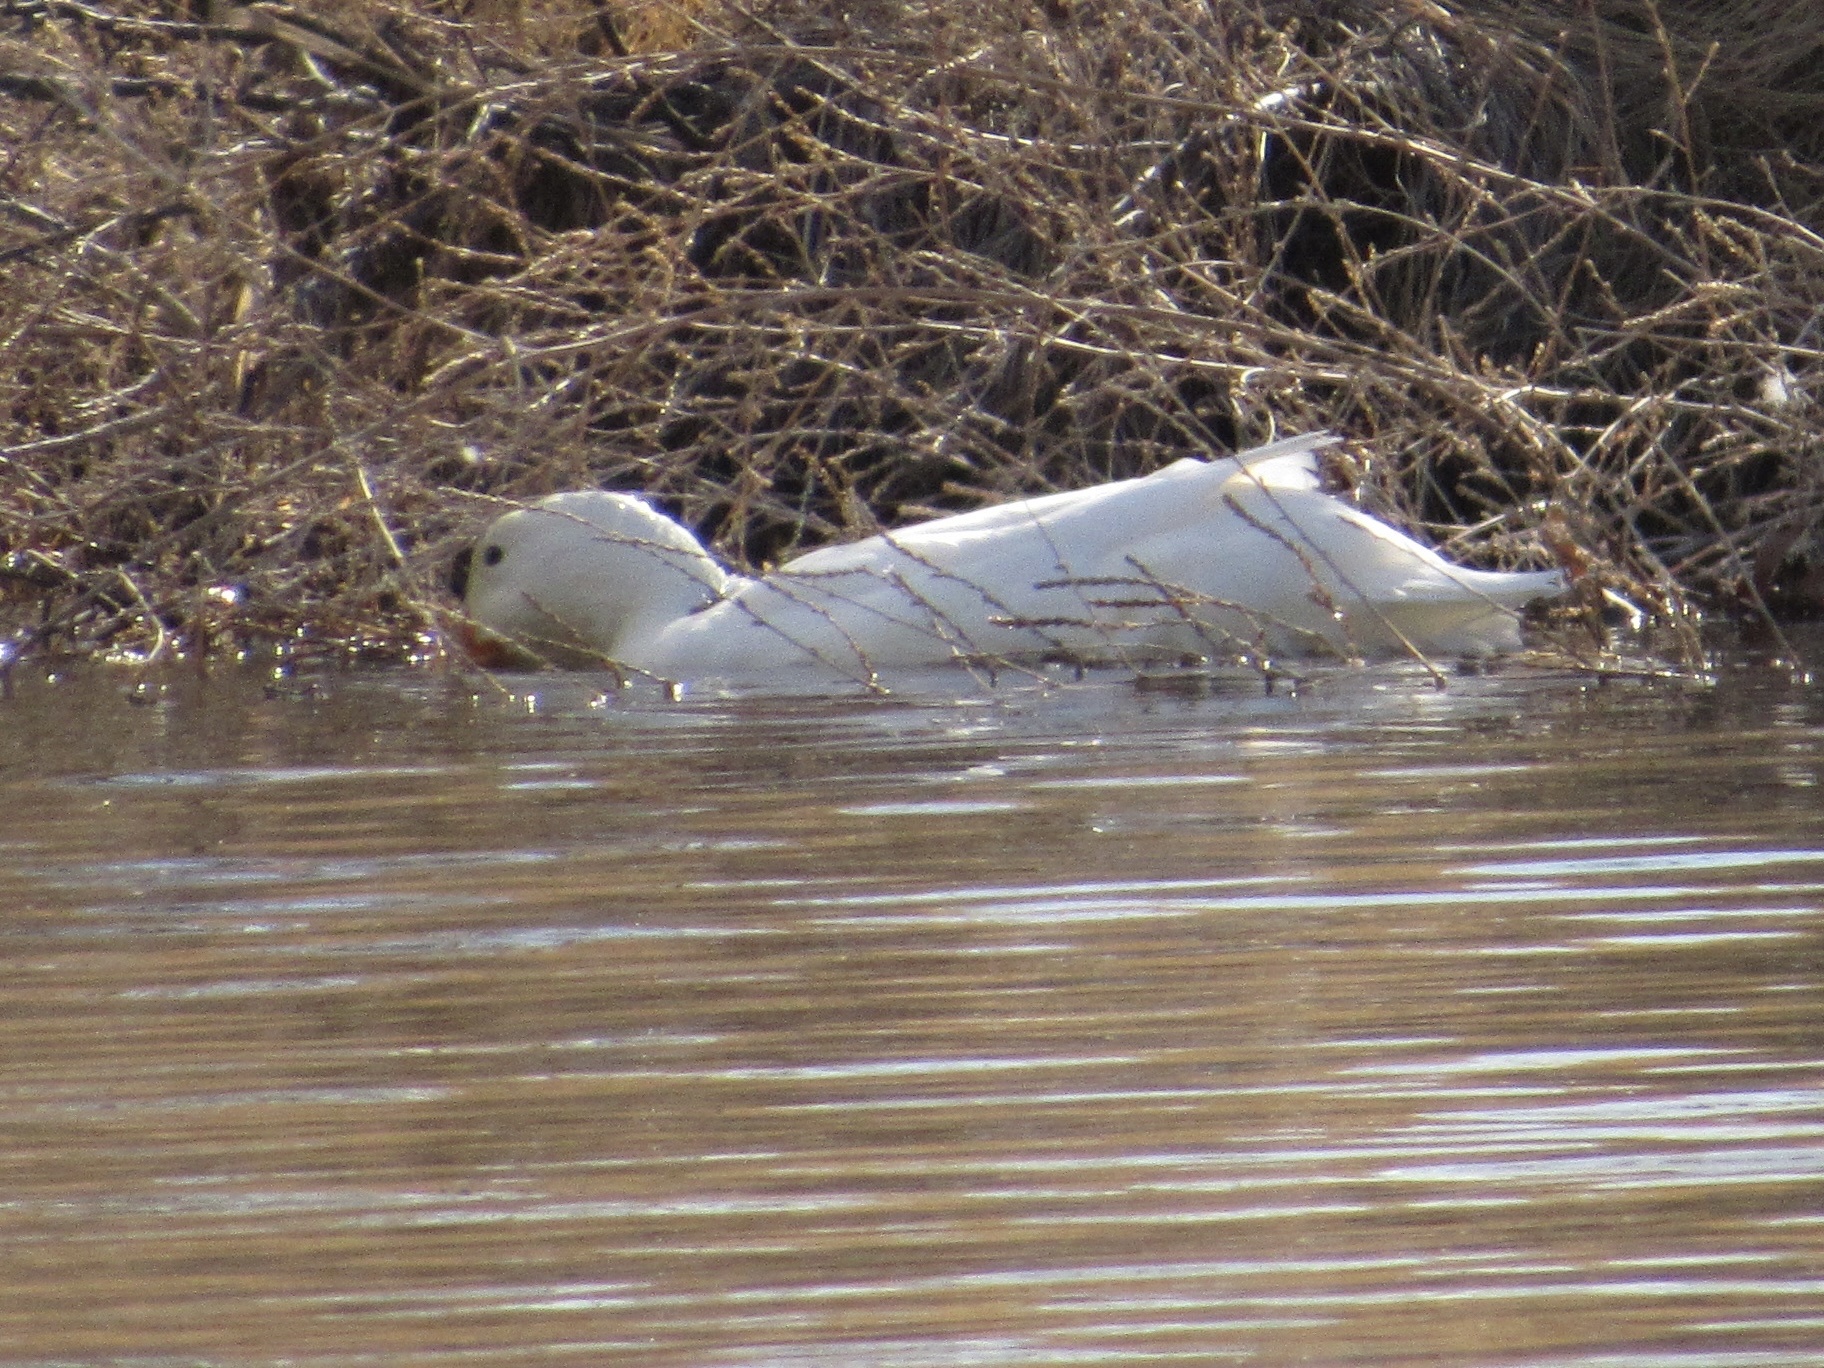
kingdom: Animalia
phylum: Chordata
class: Aves
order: Anseriformes
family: Anatidae
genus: Anas
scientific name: Anas platyrhynchos
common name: Mallard
